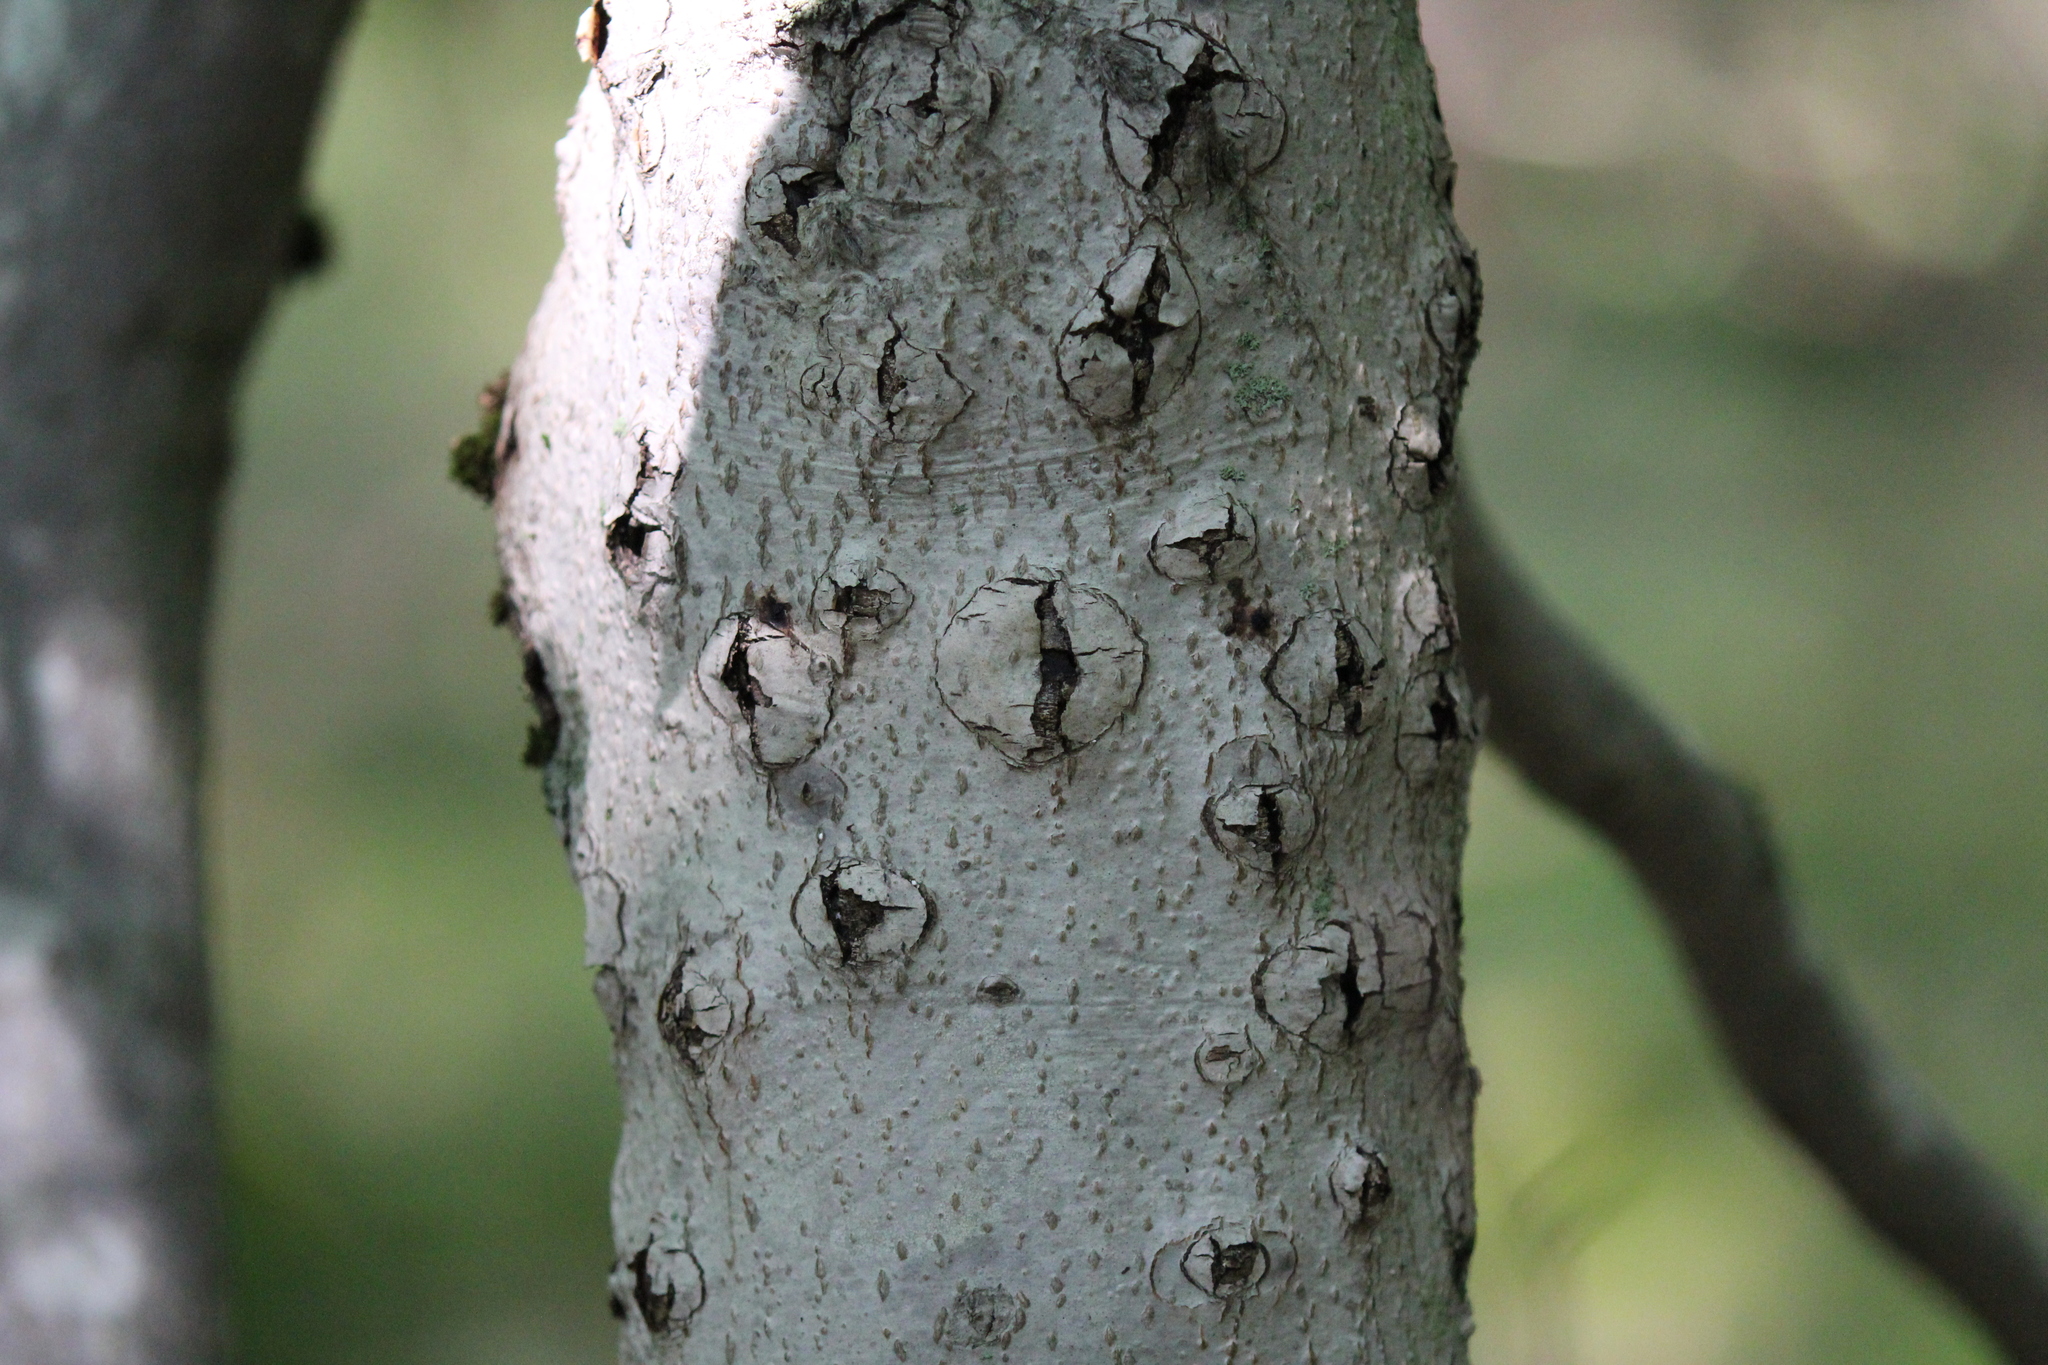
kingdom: Plantae
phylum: Tracheophyta
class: Magnoliopsida
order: Fagales
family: Fagaceae
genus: Fagus
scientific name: Fagus grandifolia
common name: American beech
